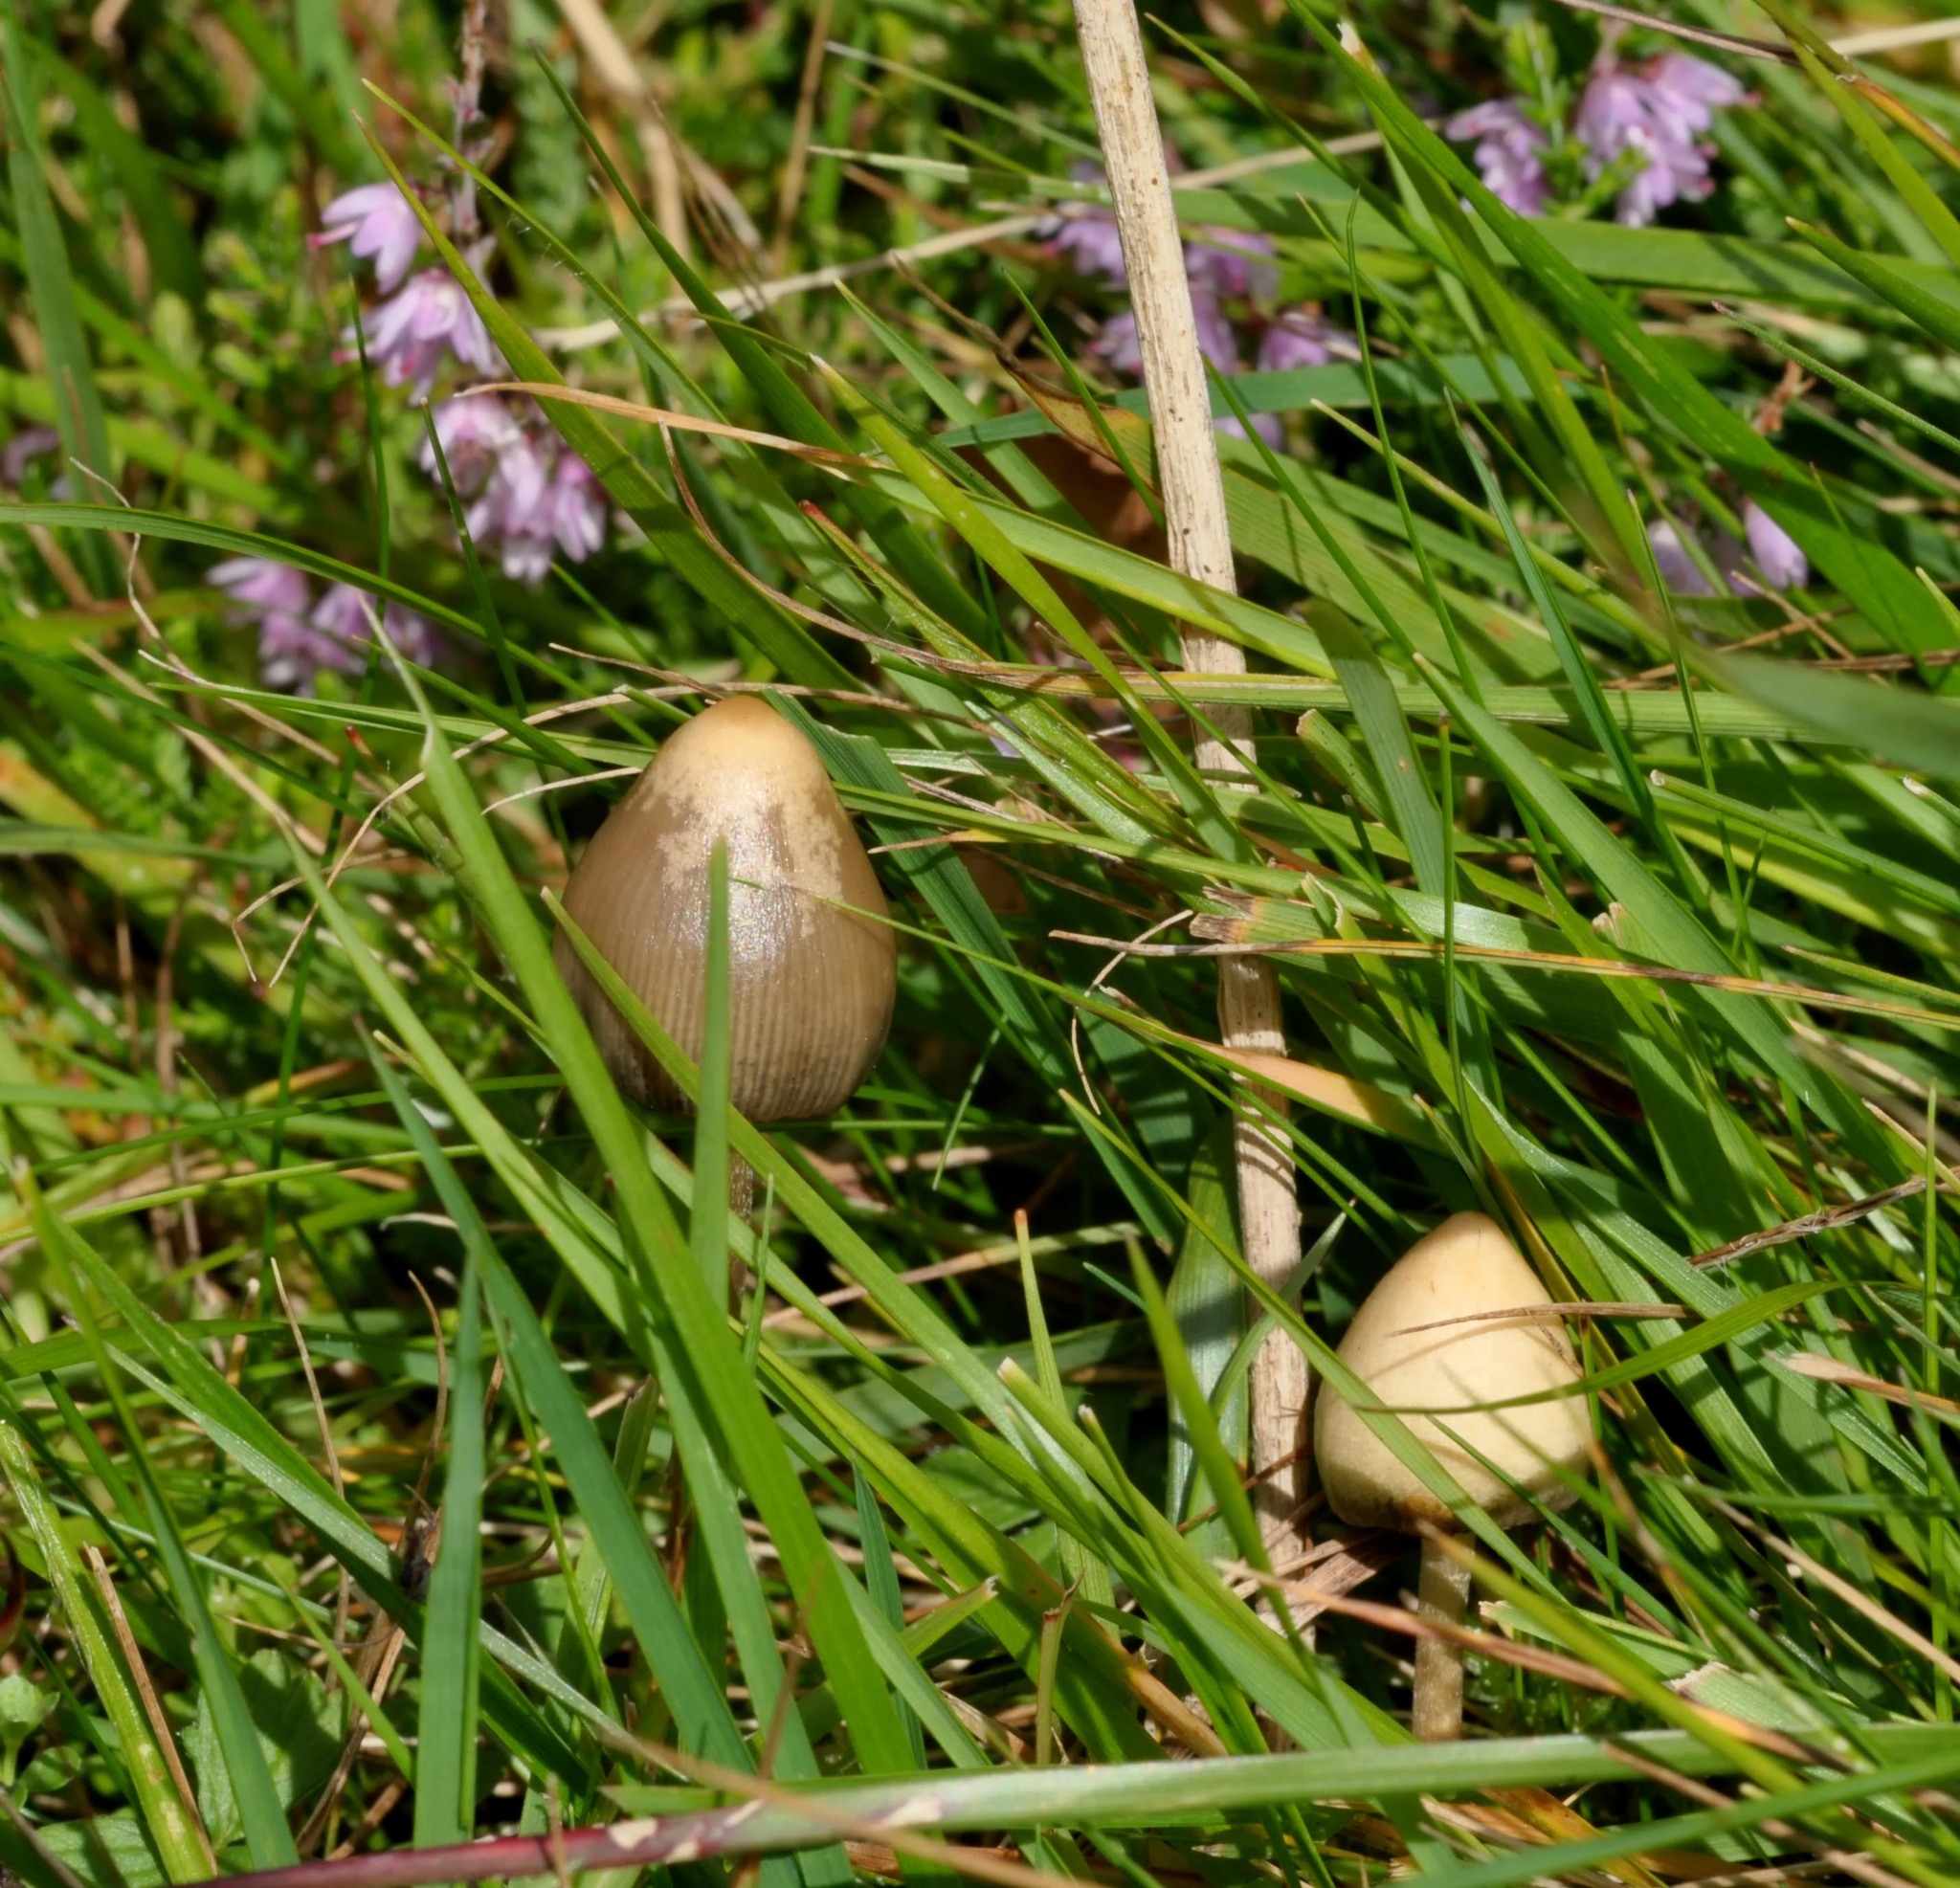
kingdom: Fungi
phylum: Basidiomycota
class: Agaricomycetes
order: Agaricales
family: Hymenogastraceae
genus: Psilocybe
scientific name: Psilocybe semilanceata
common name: Liberty cap
